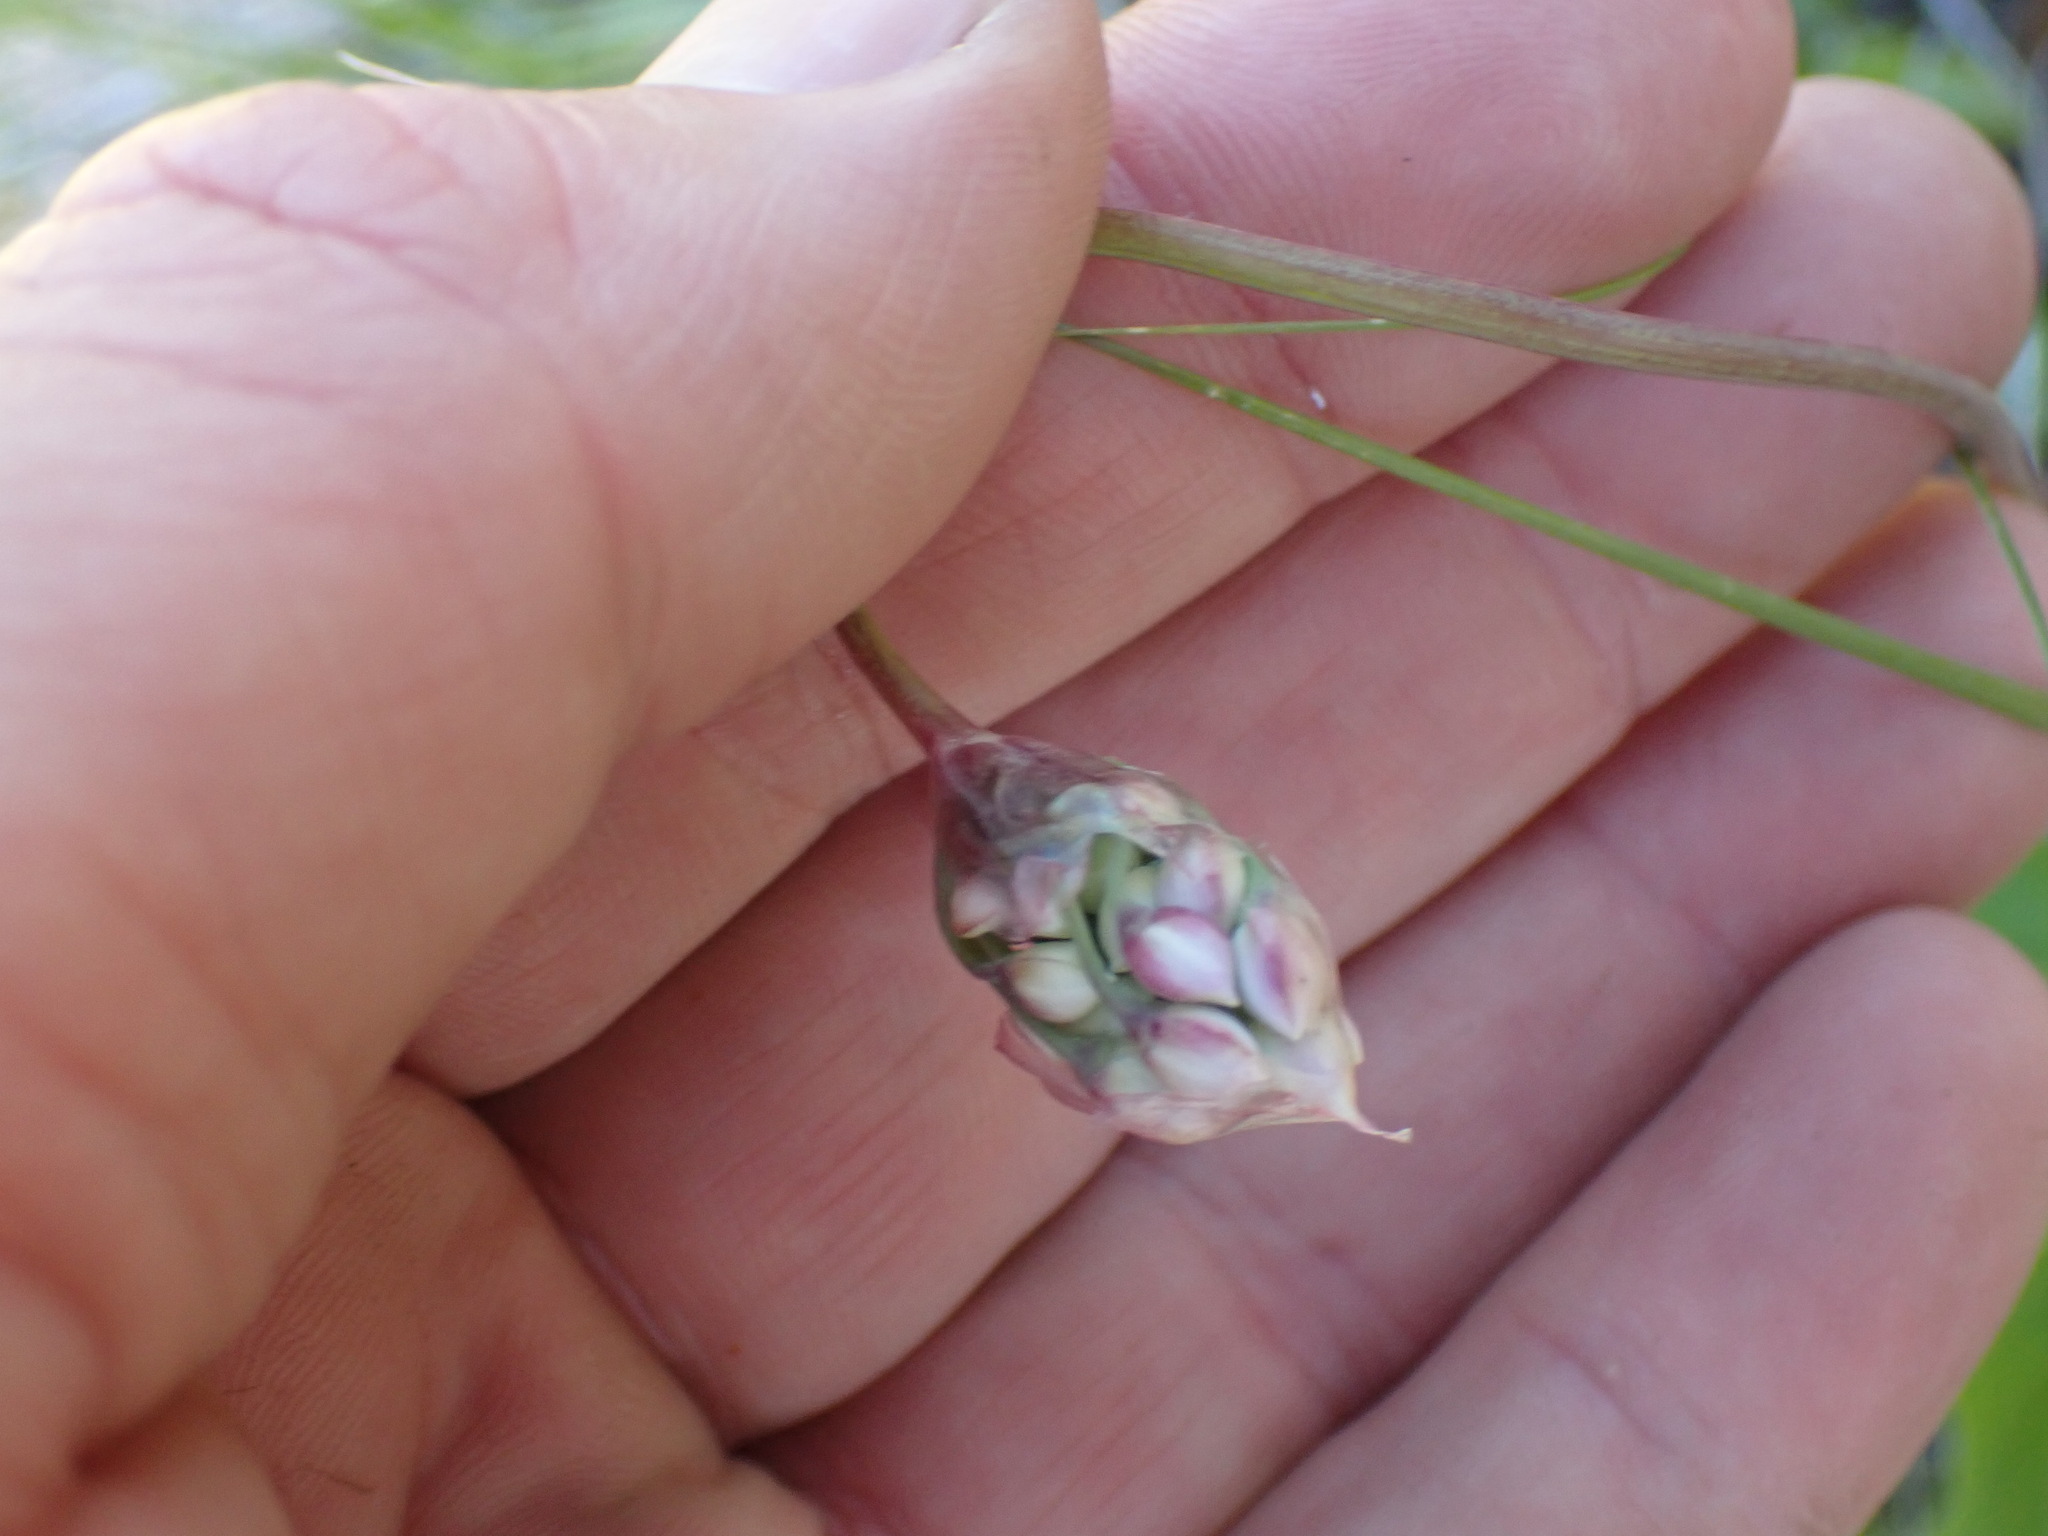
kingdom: Plantae
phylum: Tracheophyta
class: Liliopsida
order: Asparagales
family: Amaryllidaceae
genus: Allium
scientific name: Allium cernuum
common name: Nodding onion
